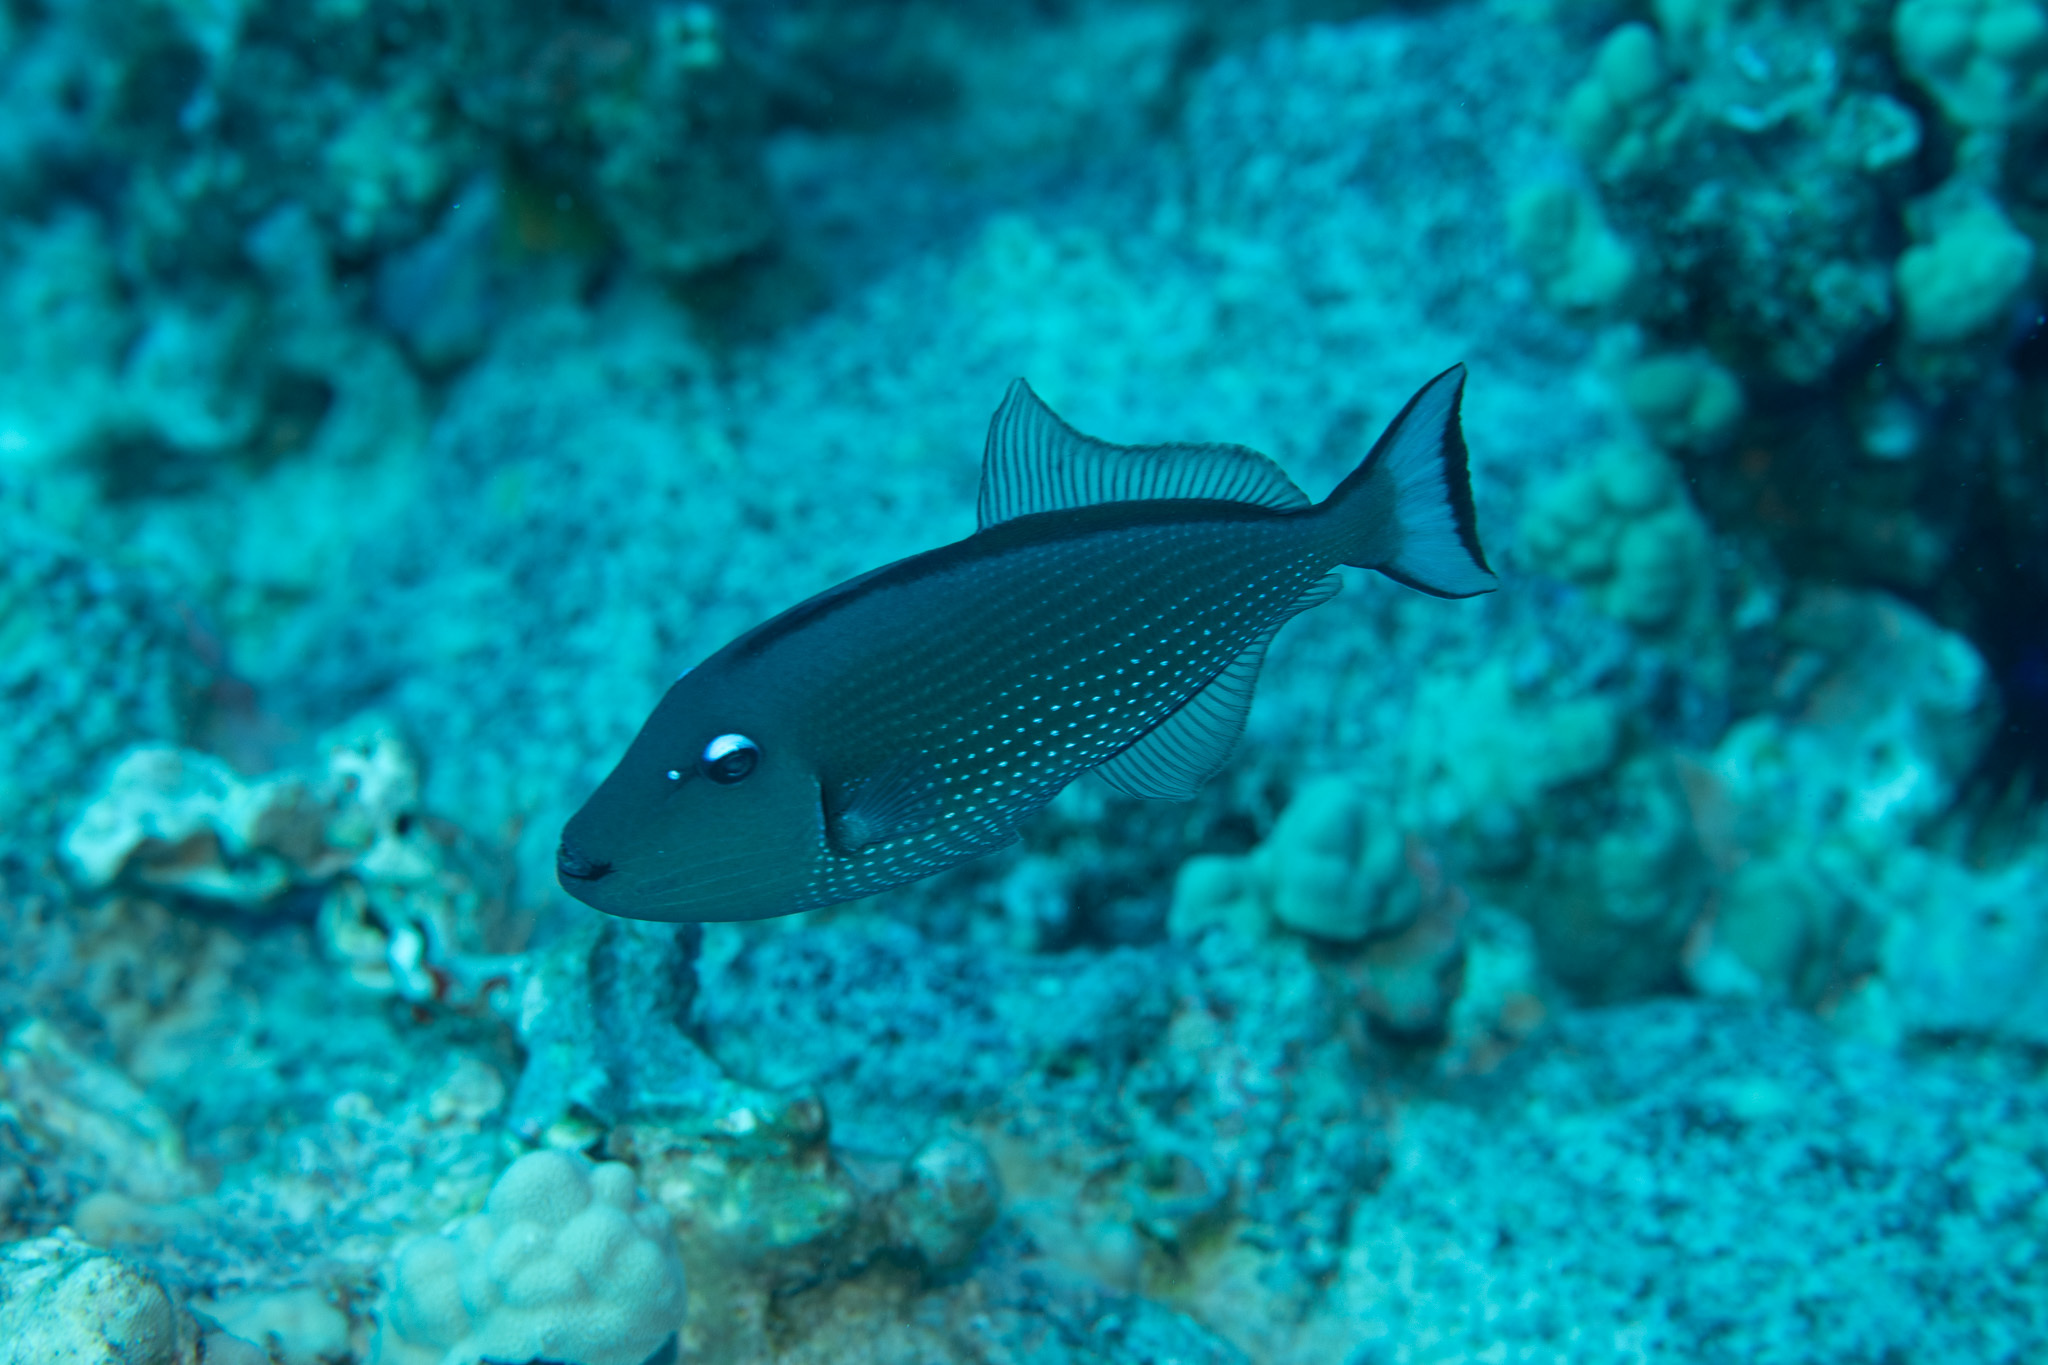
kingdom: Animalia
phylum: Chordata
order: Tetraodontiformes
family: Balistidae
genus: Xanthichthys
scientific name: Xanthichthys auromarginatus
